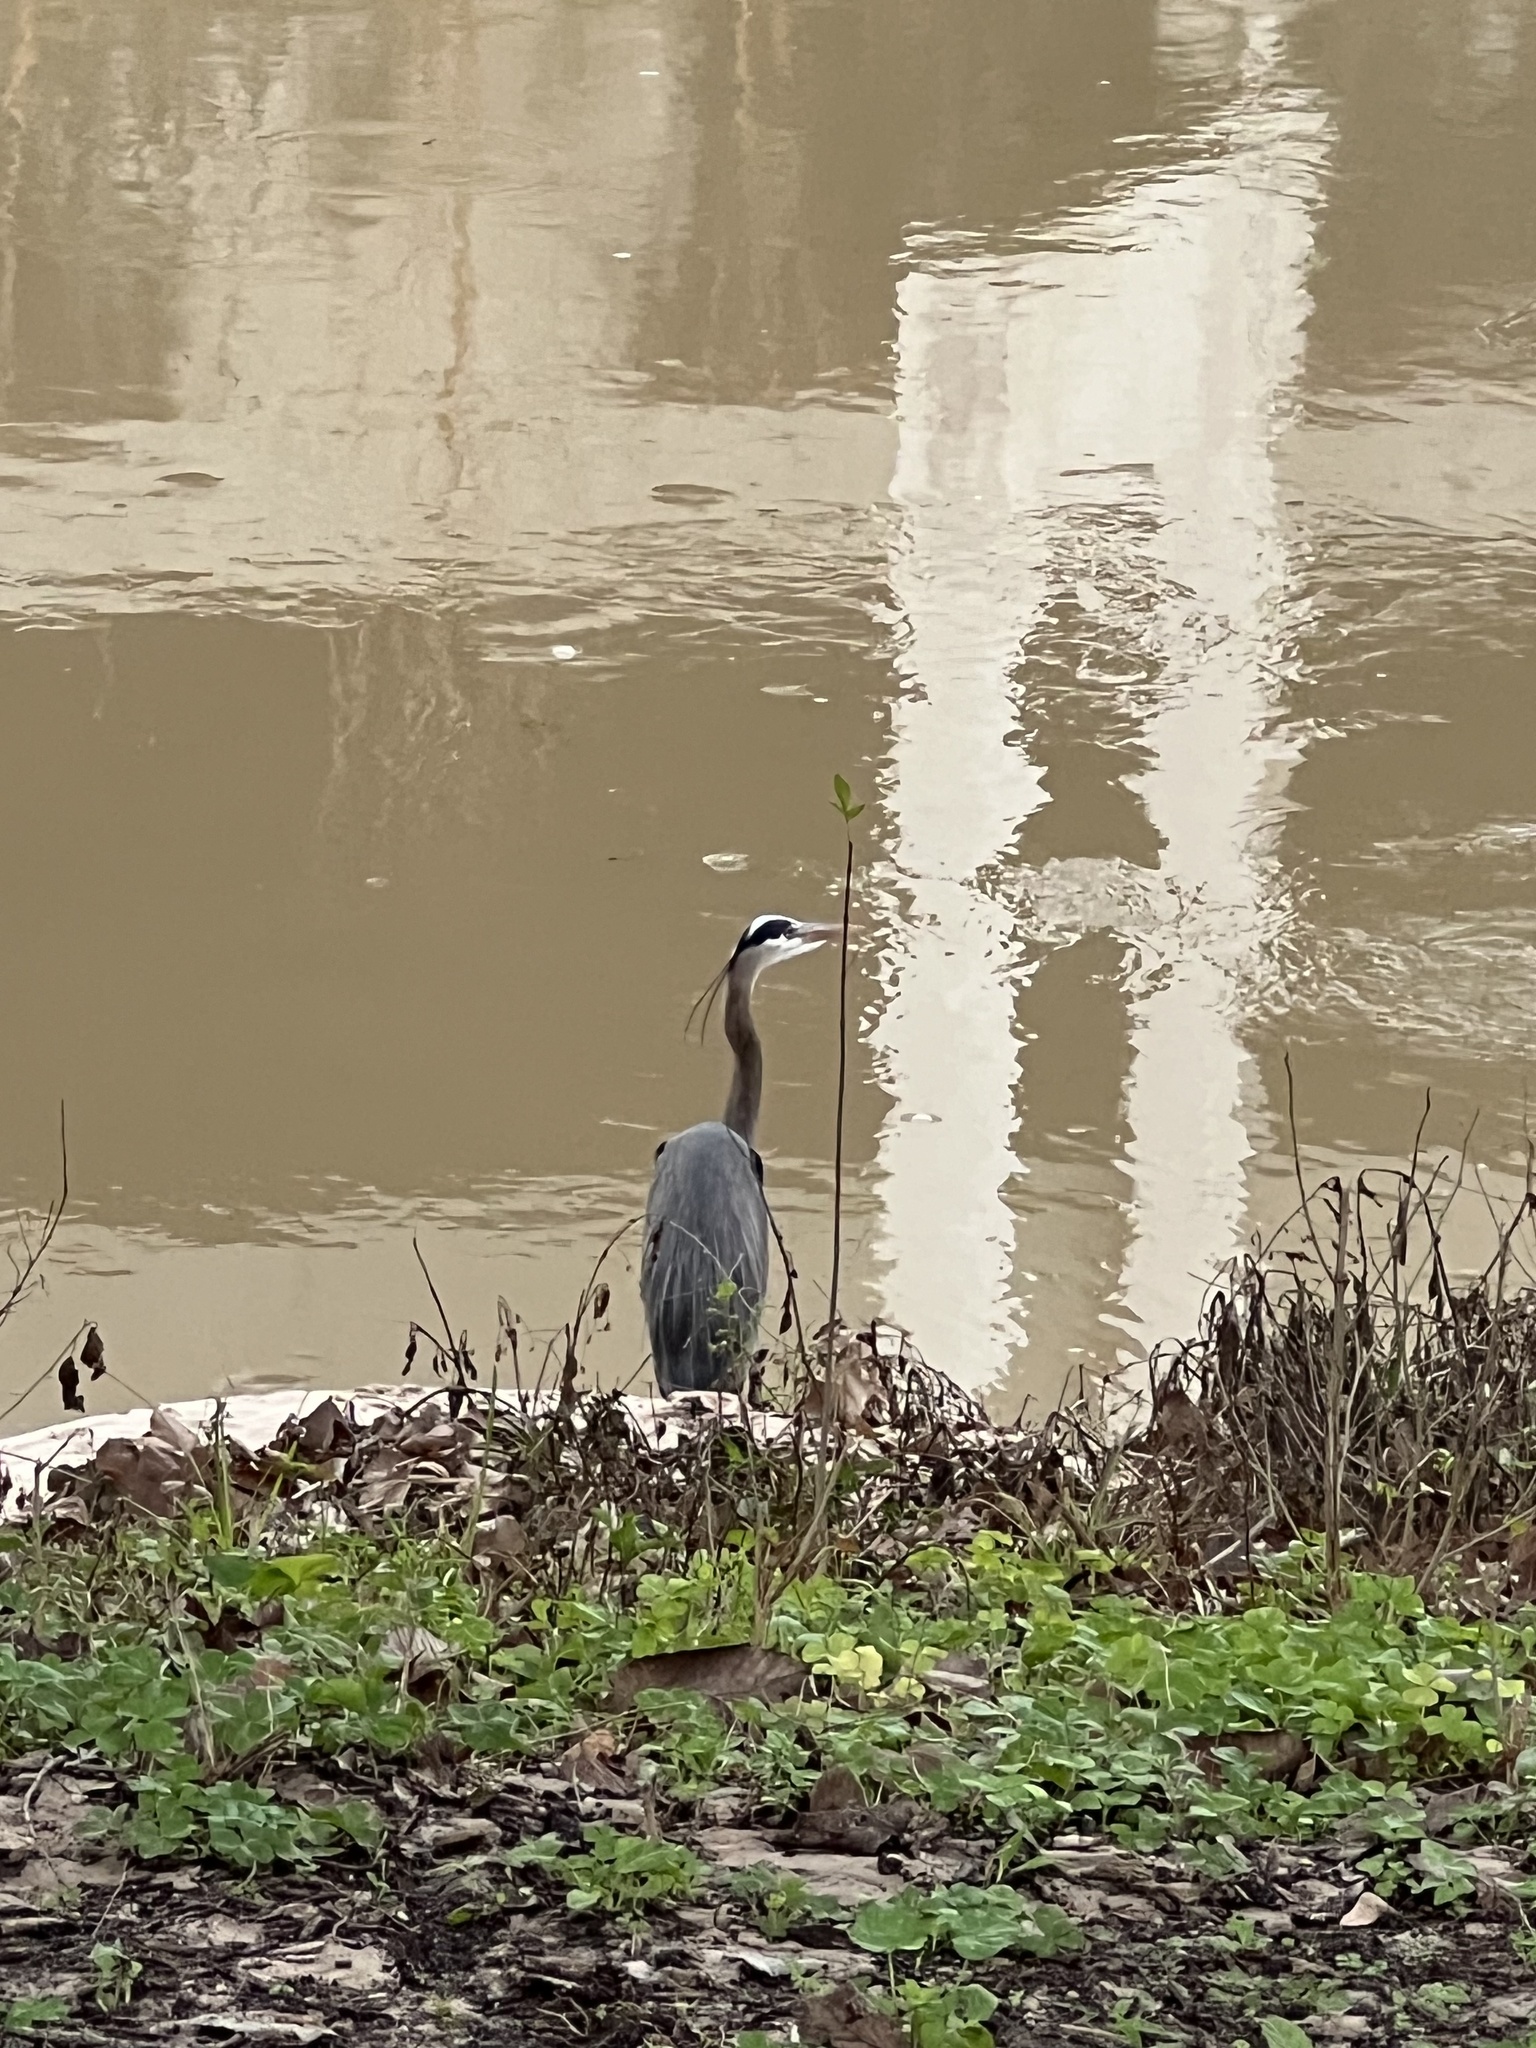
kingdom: Animalia
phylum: Chordata
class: Aves
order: Pelecaniformes
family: Ardeidae
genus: Ardea
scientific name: Ardea herodias
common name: Great blue heron
